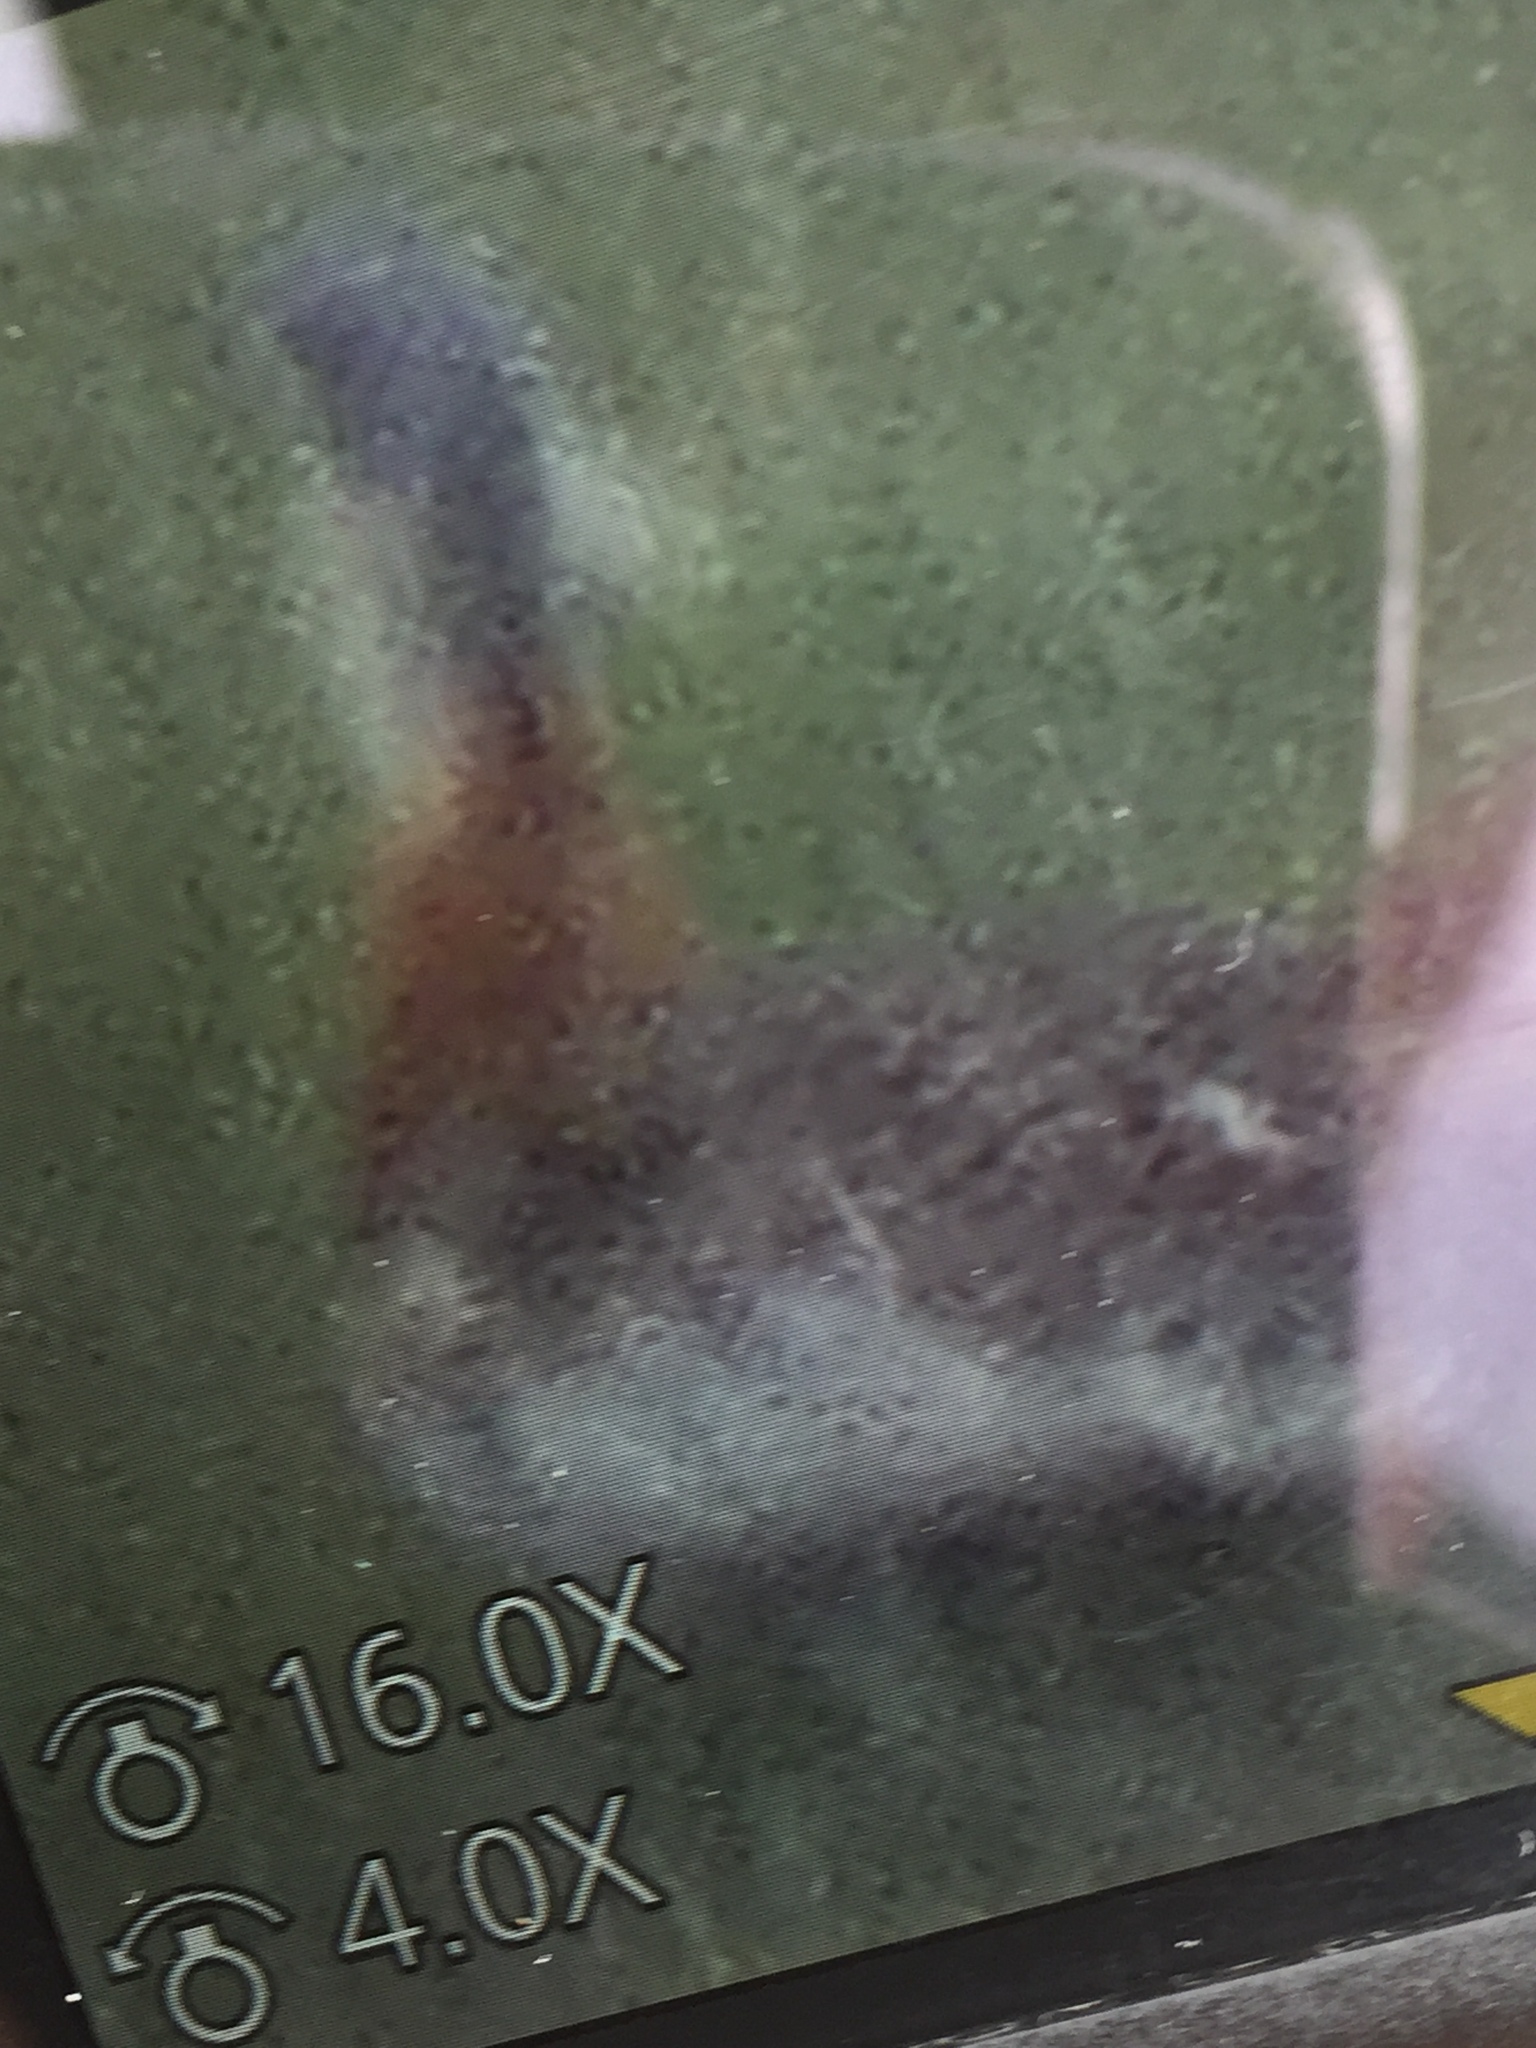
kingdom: Animalia
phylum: Chordata
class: Aves
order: Otidiformes
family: Otididae
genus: Otis
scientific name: Otis tarda
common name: Great bustard
